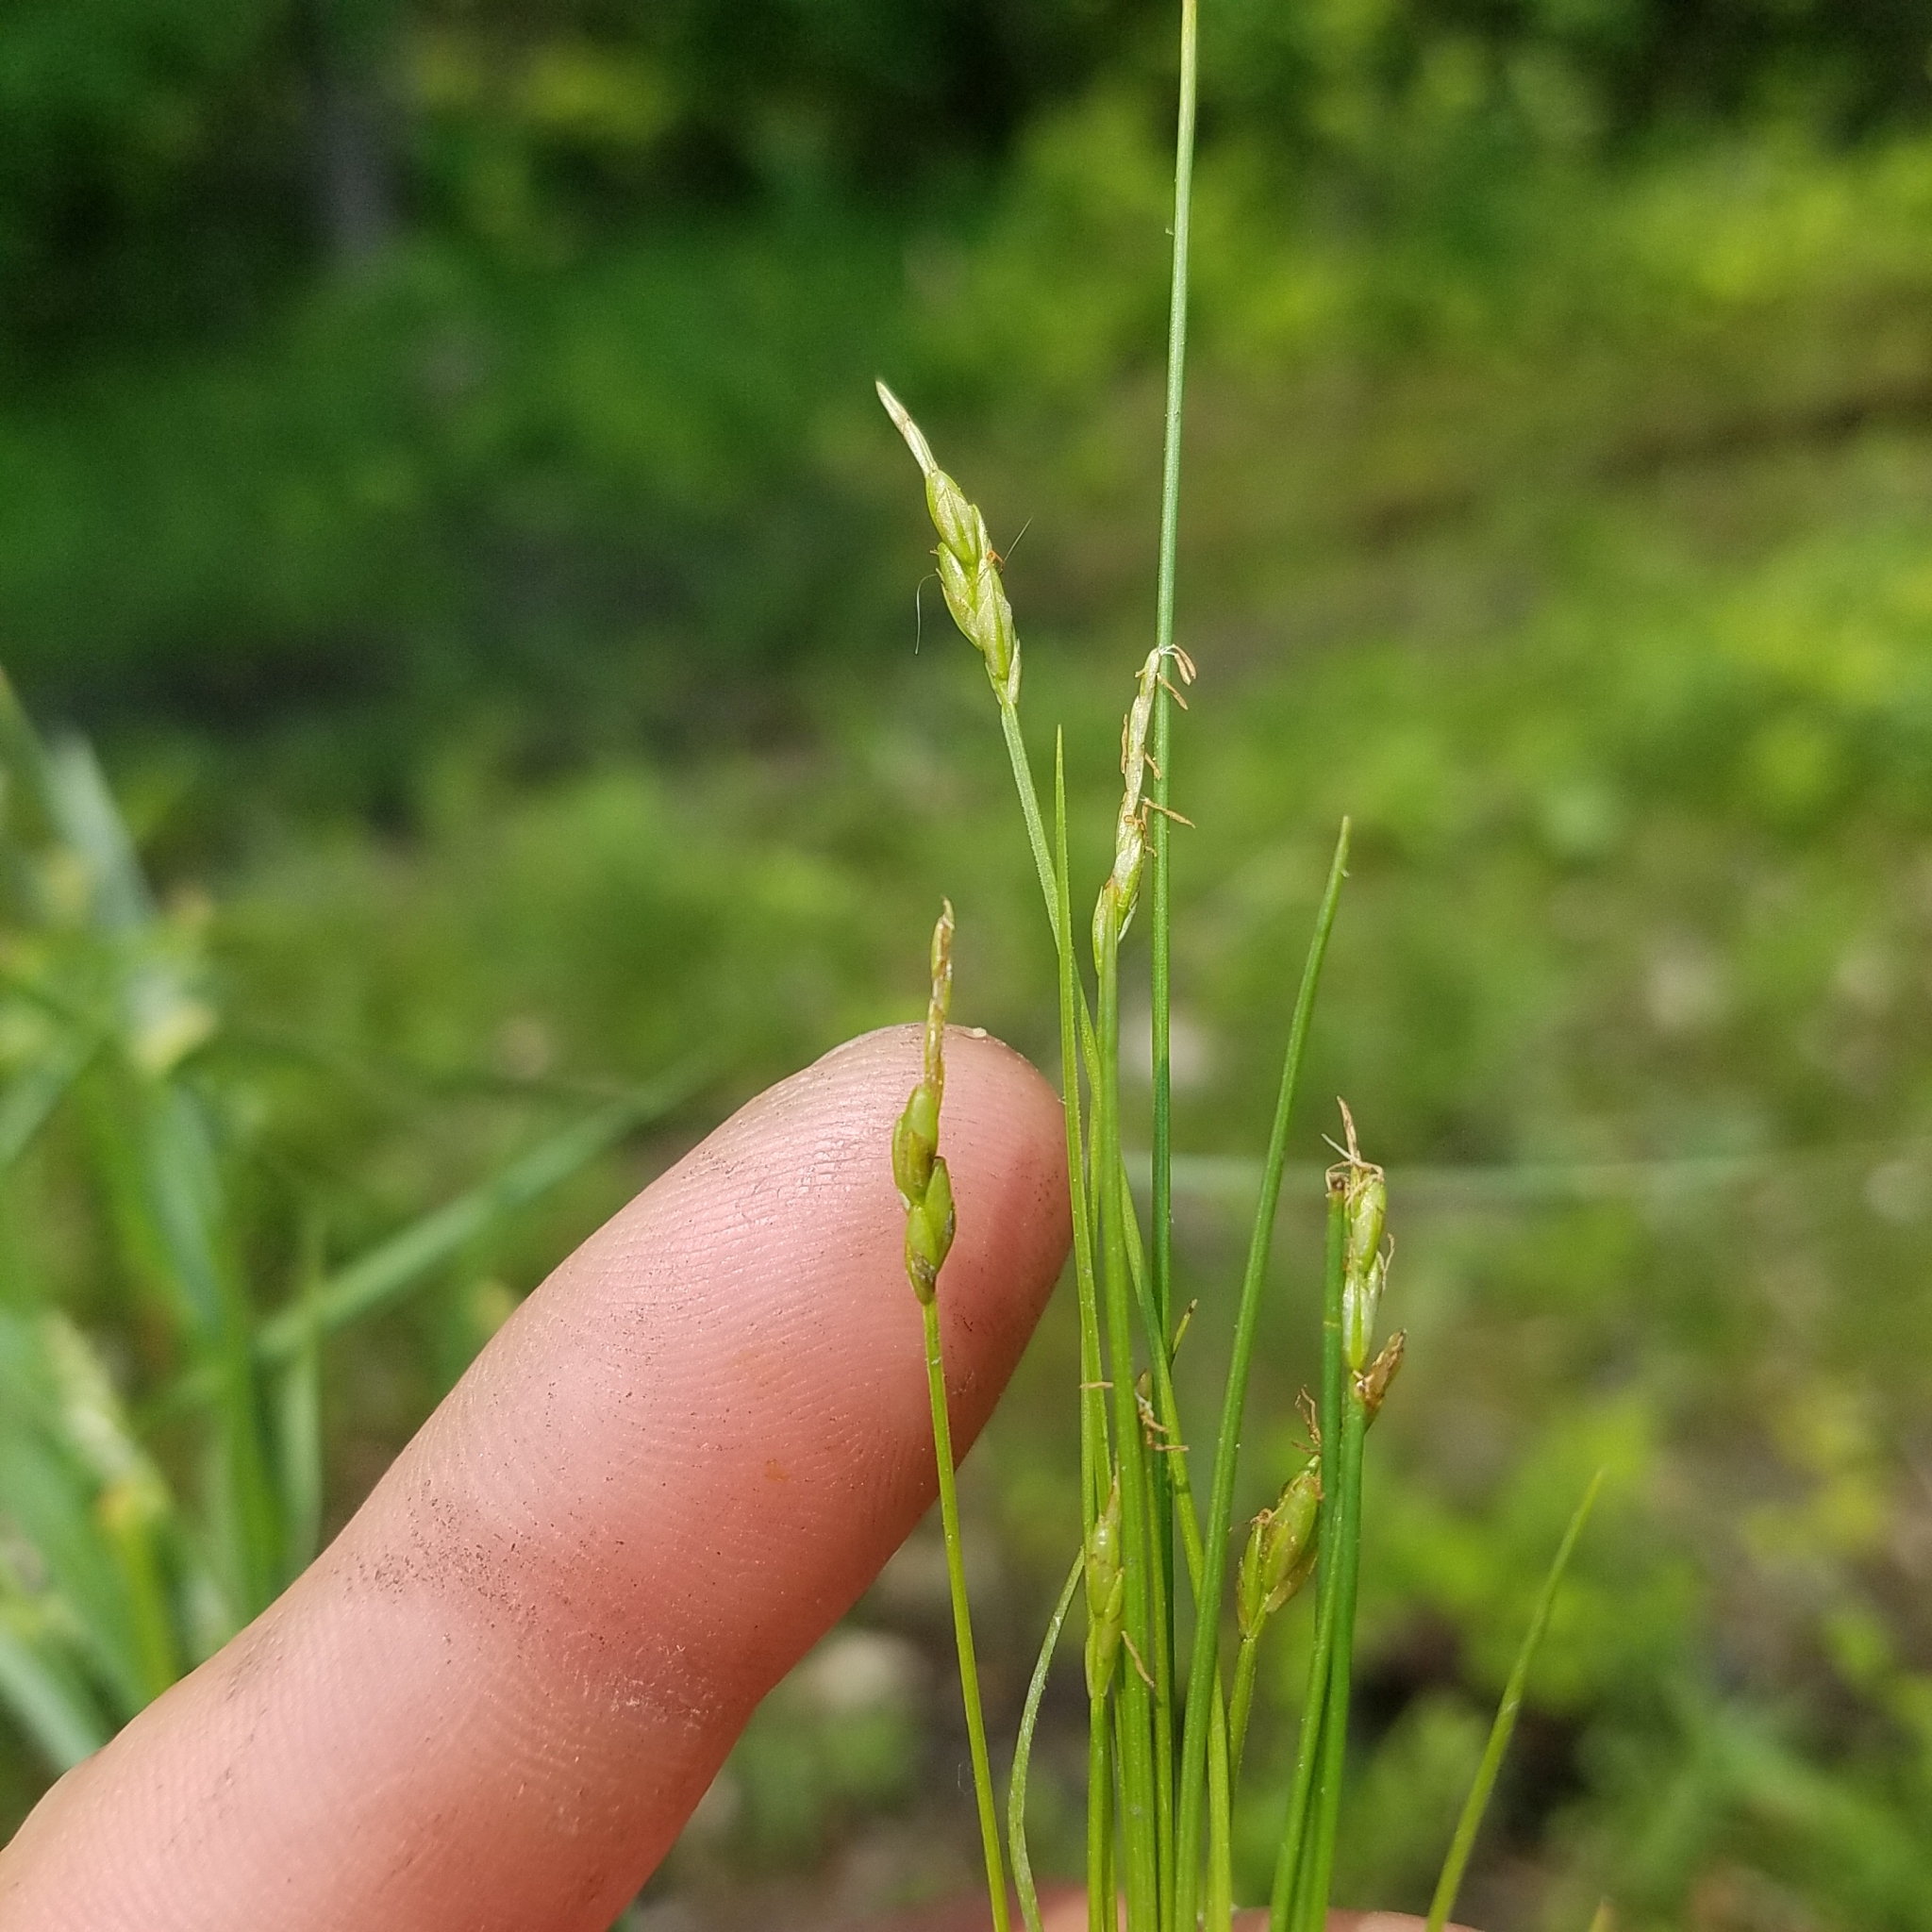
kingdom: Plantae
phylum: Tracheophyta
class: Liliopsida
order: Poales
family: Cyperaceae
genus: Carex
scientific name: Carex leptalea
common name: Bristly-stalked sedge
